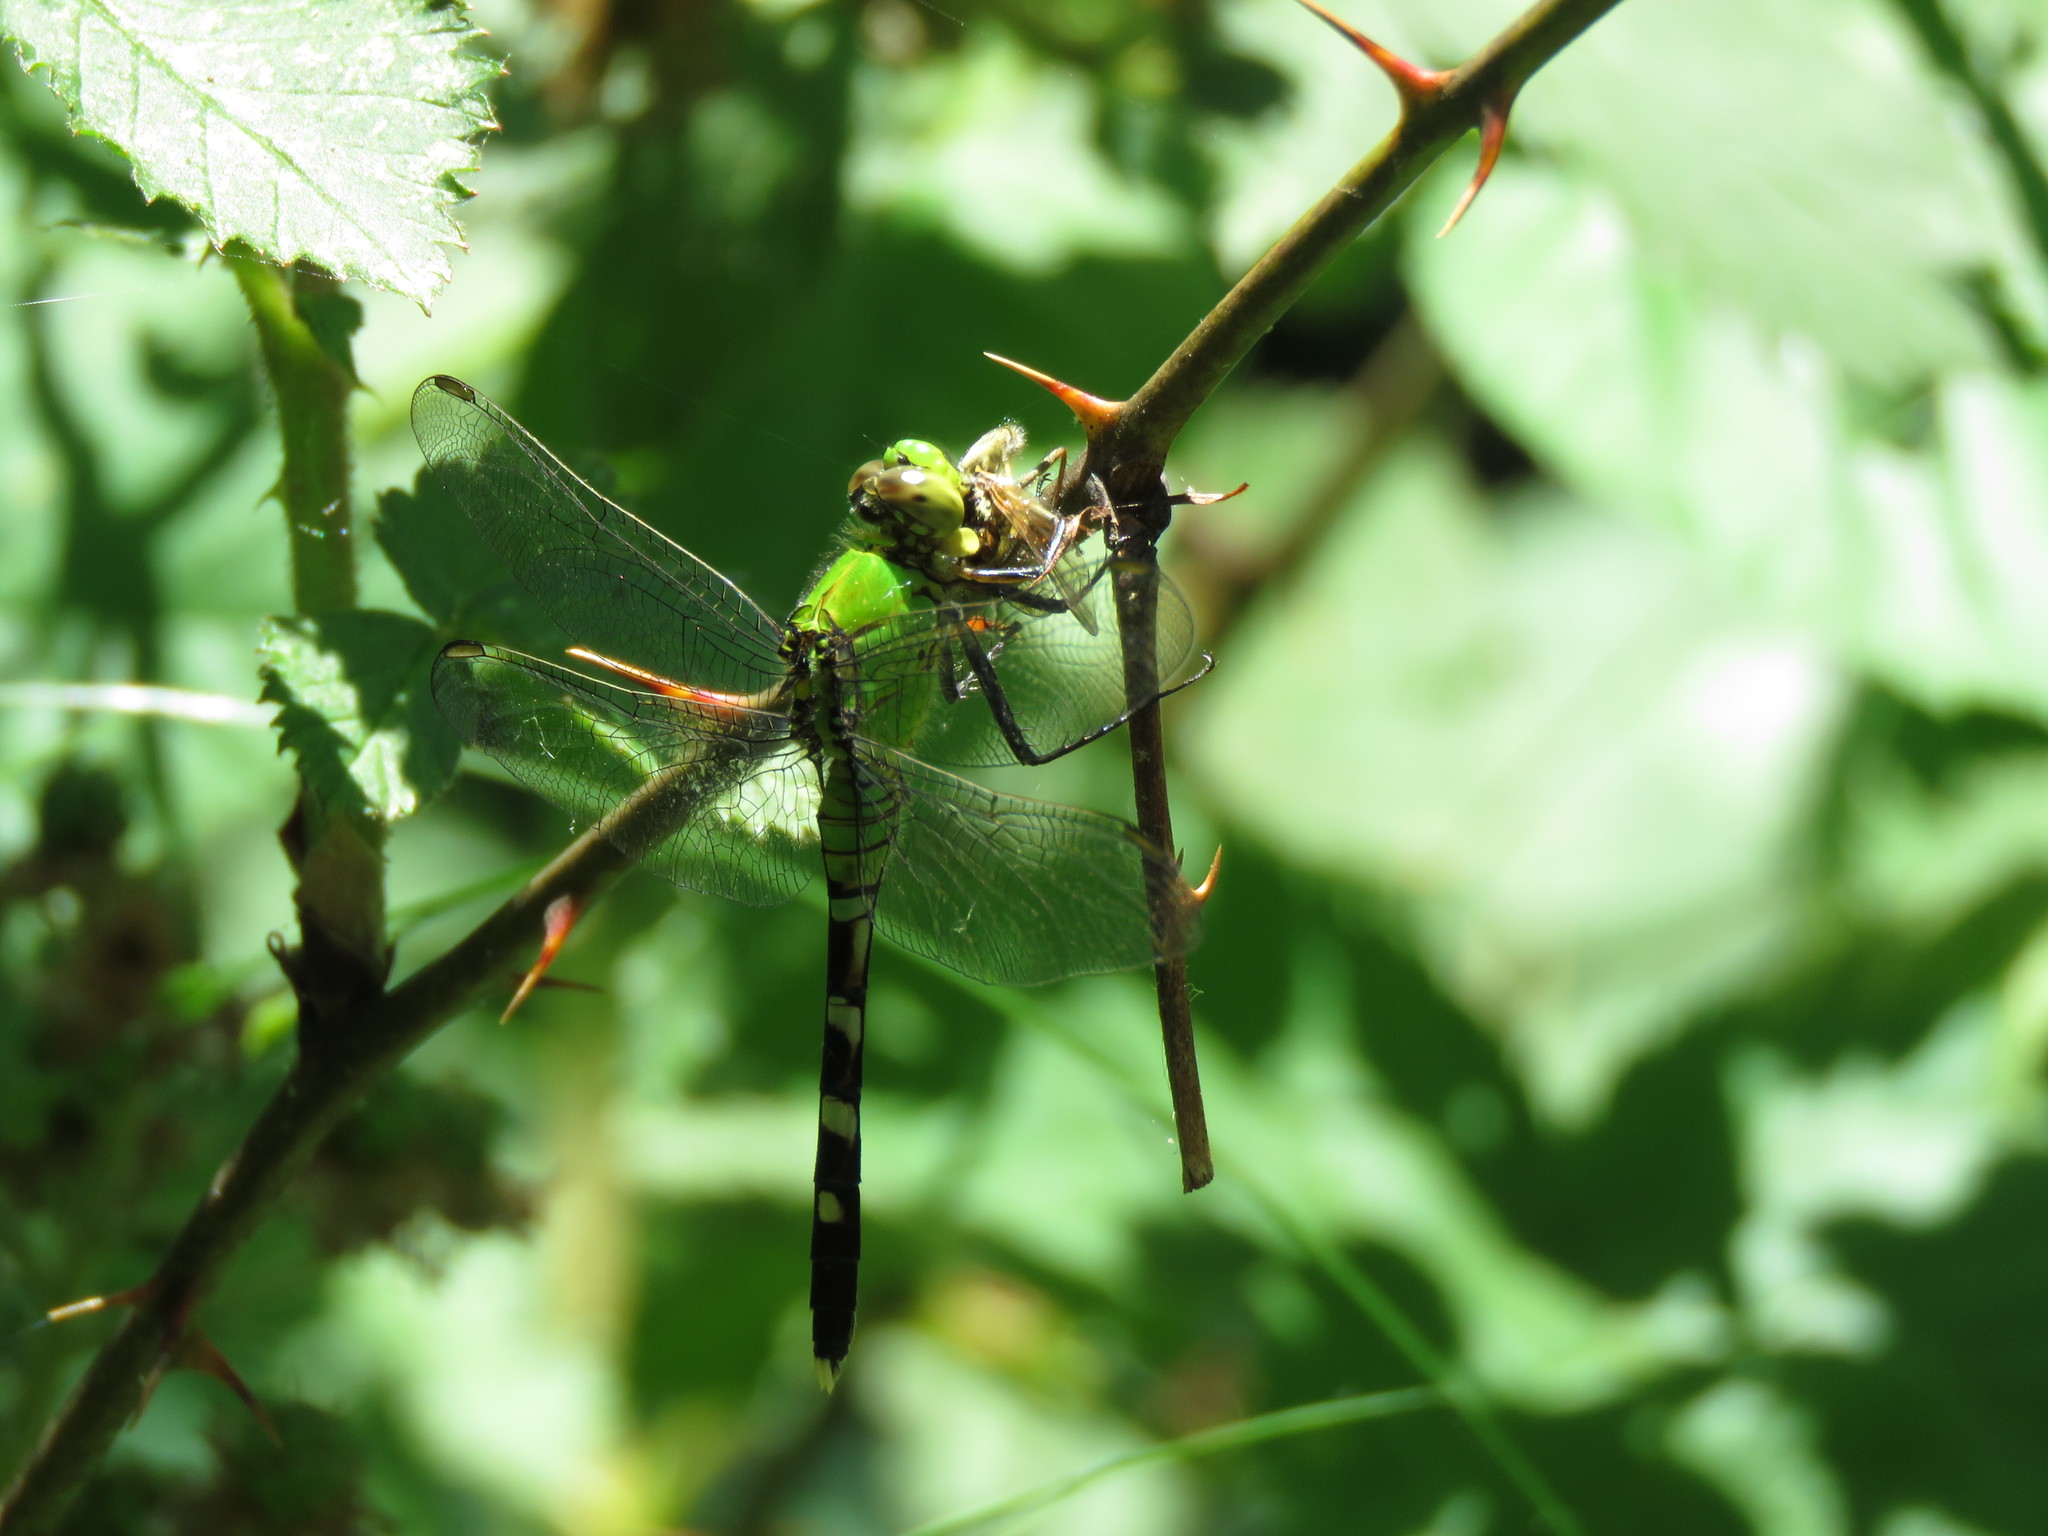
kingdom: Animalia
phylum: Arthropoda
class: Insecta
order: Odonata
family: Libellulidae
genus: Erythemis
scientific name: Erythemis simplicicollis
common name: Eastern pondhawk
